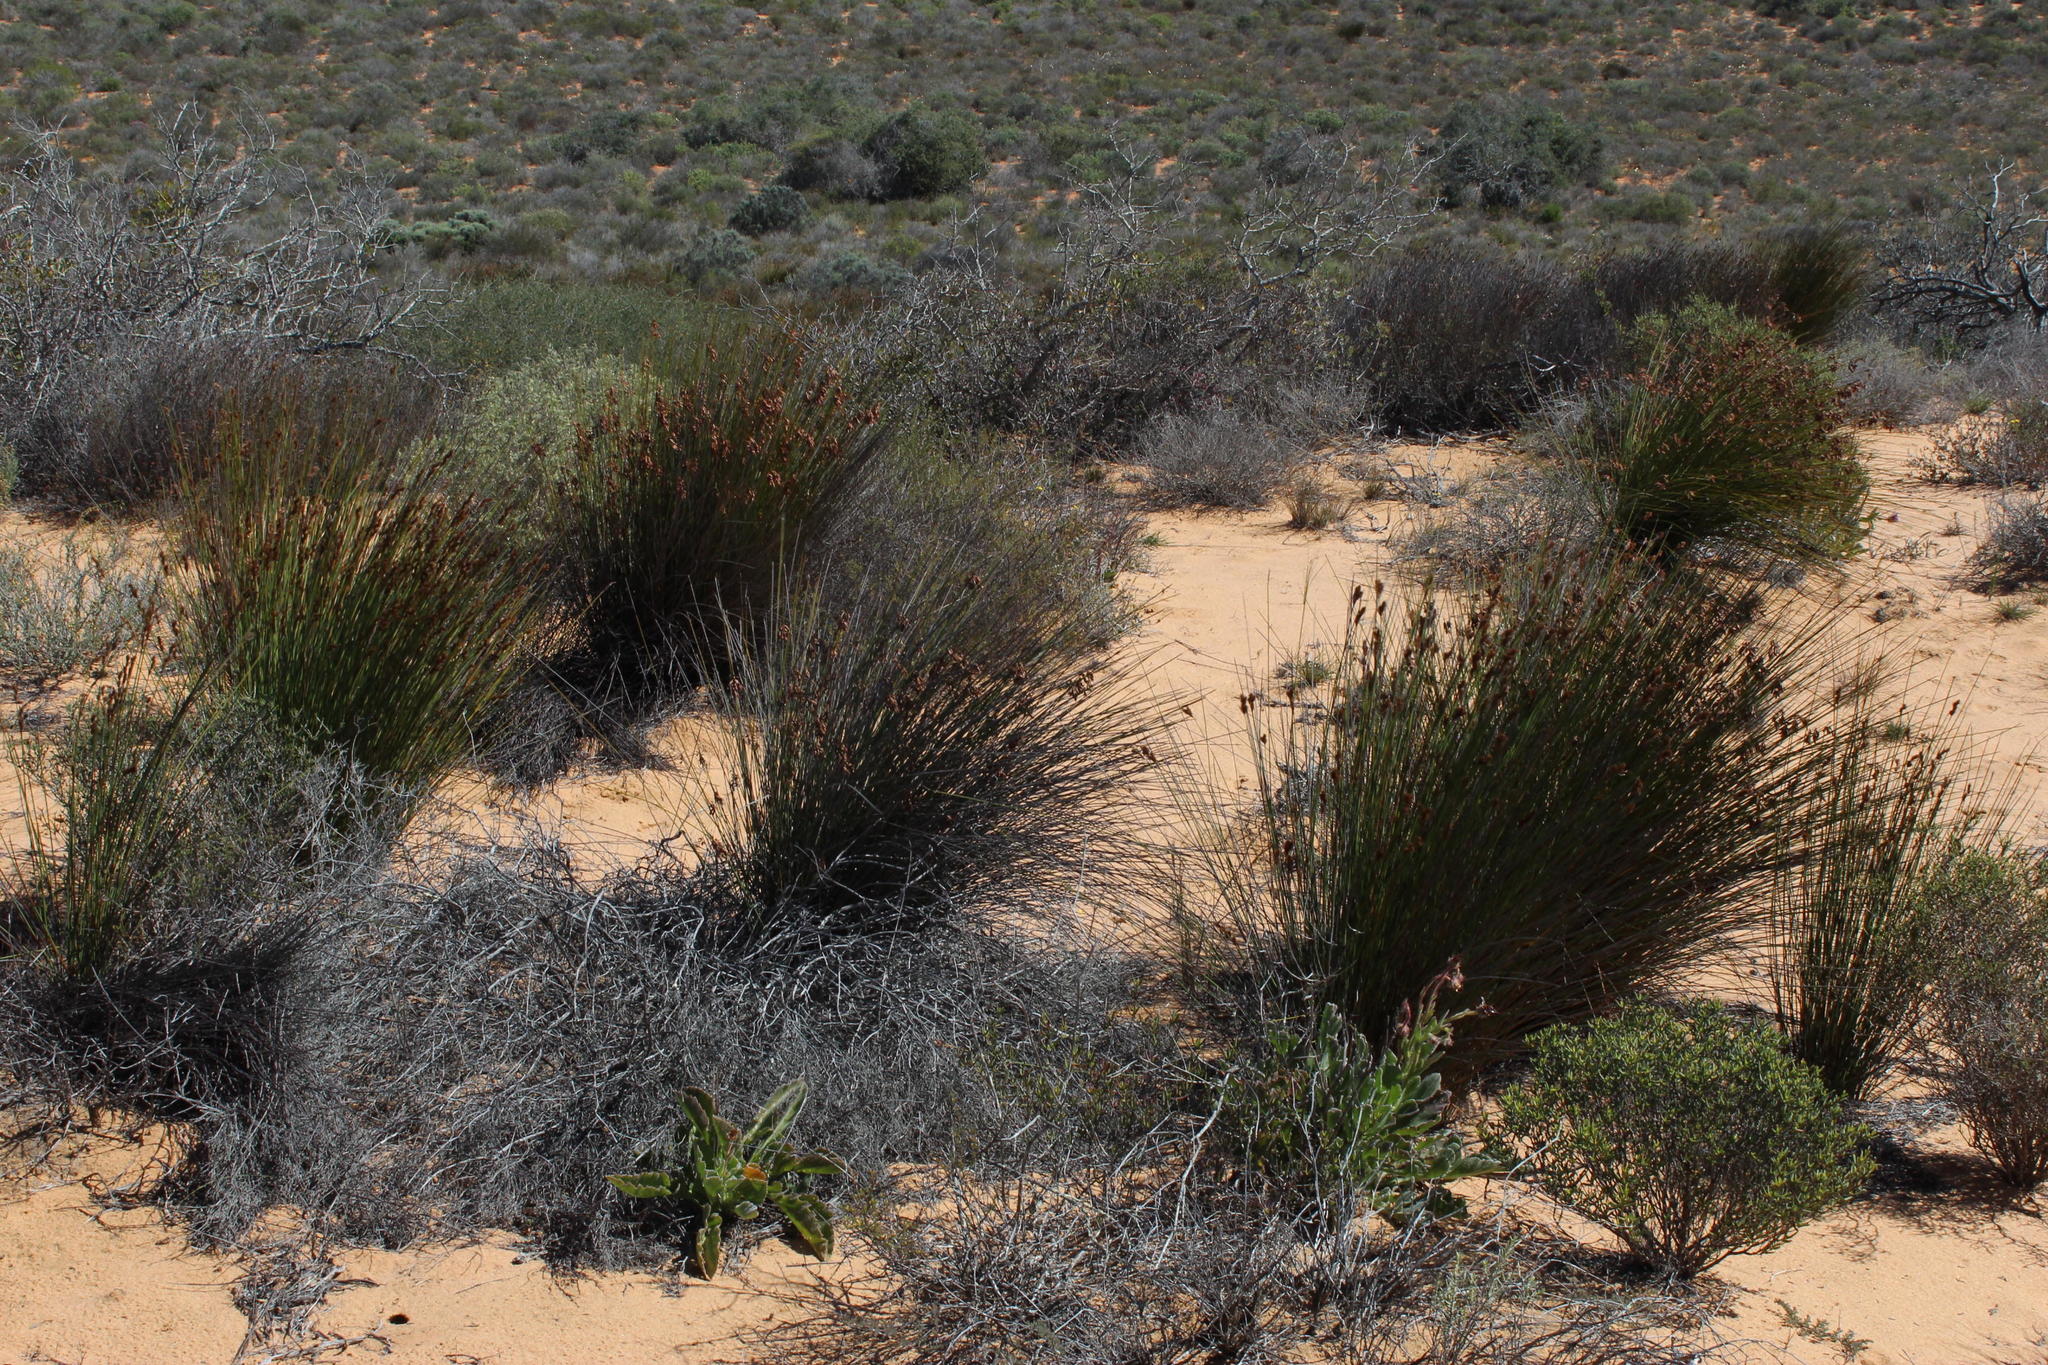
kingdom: Plantae
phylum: Tracheophyta
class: Liliopsida
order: Poales
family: Restionaceae
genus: Thamnochortus
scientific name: Thamnochortus bachmannii
